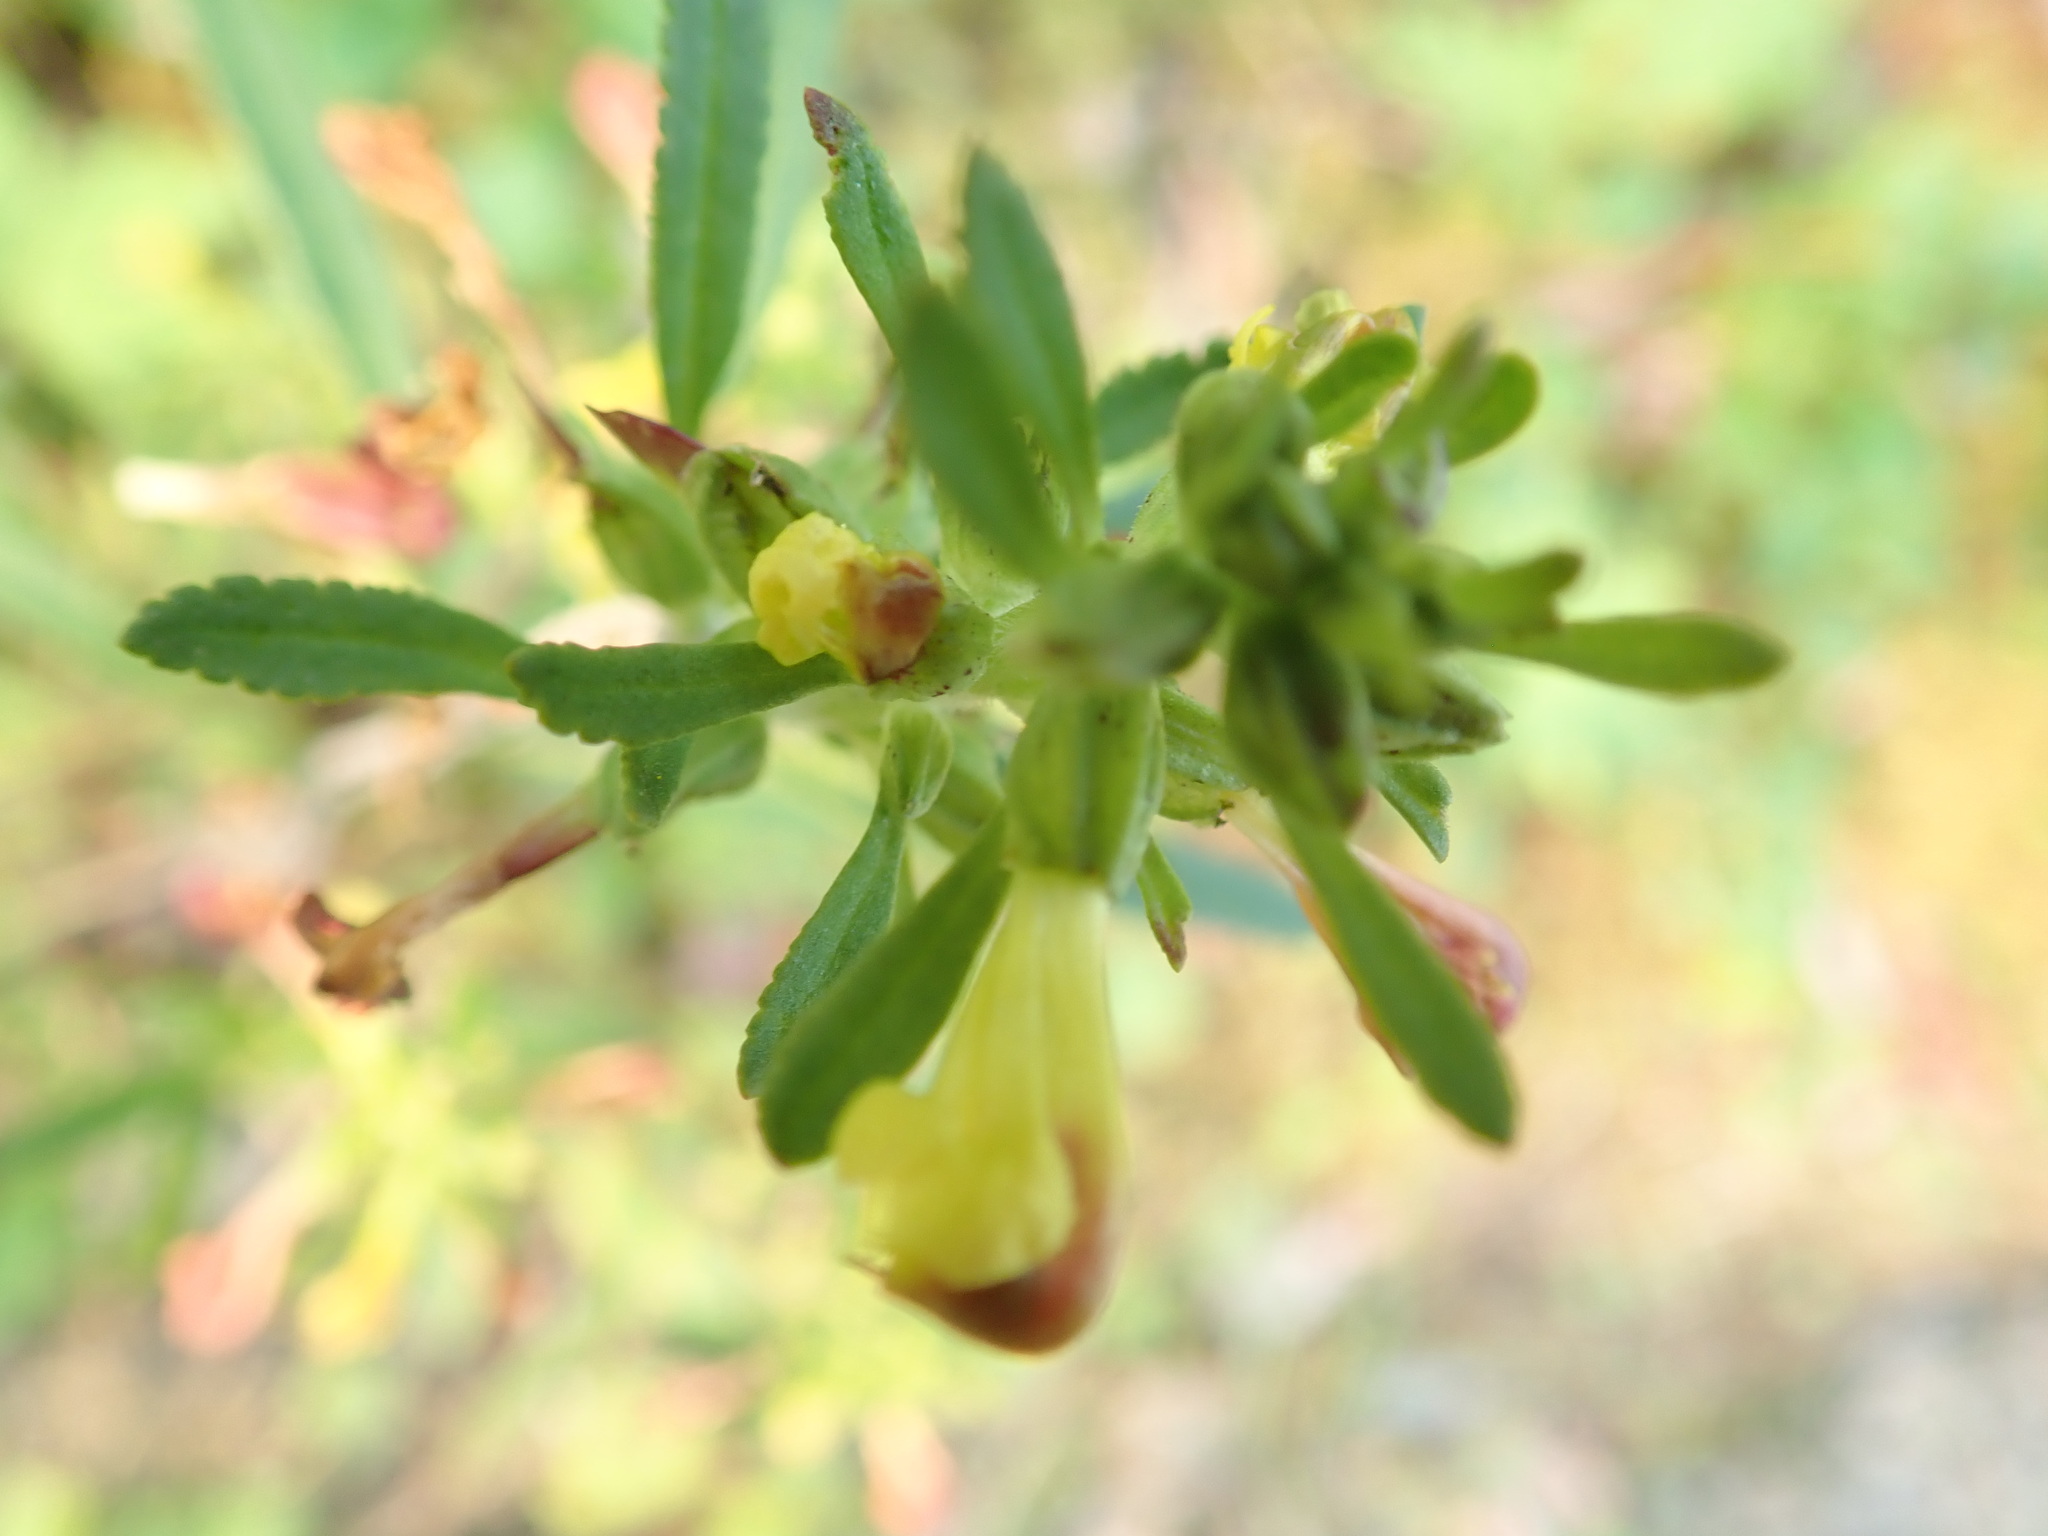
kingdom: Plantae
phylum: Tracheophyta
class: Magnoliopsida
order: Lamiales
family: Orobanchaceae
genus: Pedicularis
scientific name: Pedicularis labradorica
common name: Labrador lousewort
